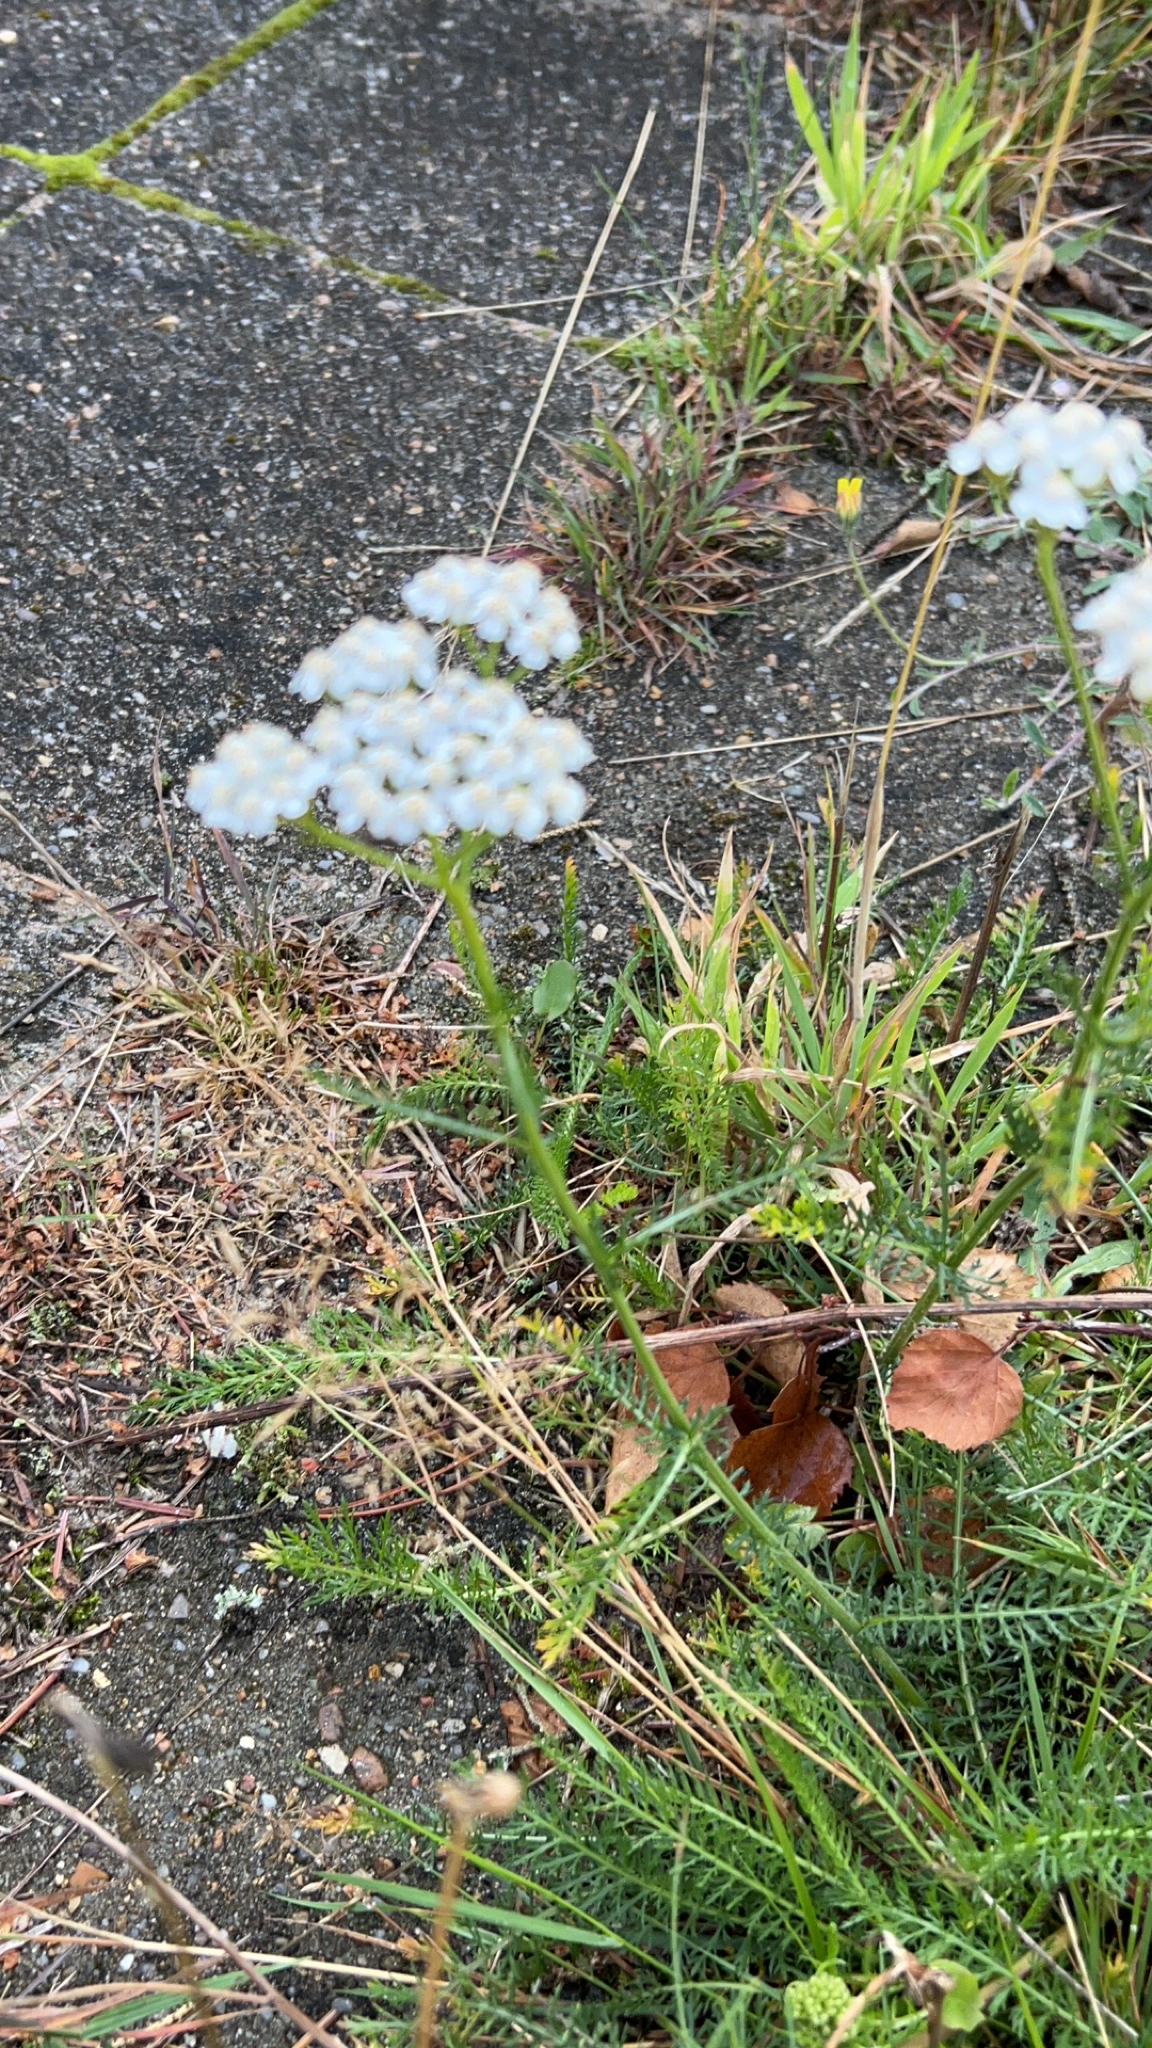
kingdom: Plantae
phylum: Tracheophyta
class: Magnoliopsida
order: Asterales
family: Asteraceae
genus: Achillea
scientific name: Achillea millefolium
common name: Yarrow
